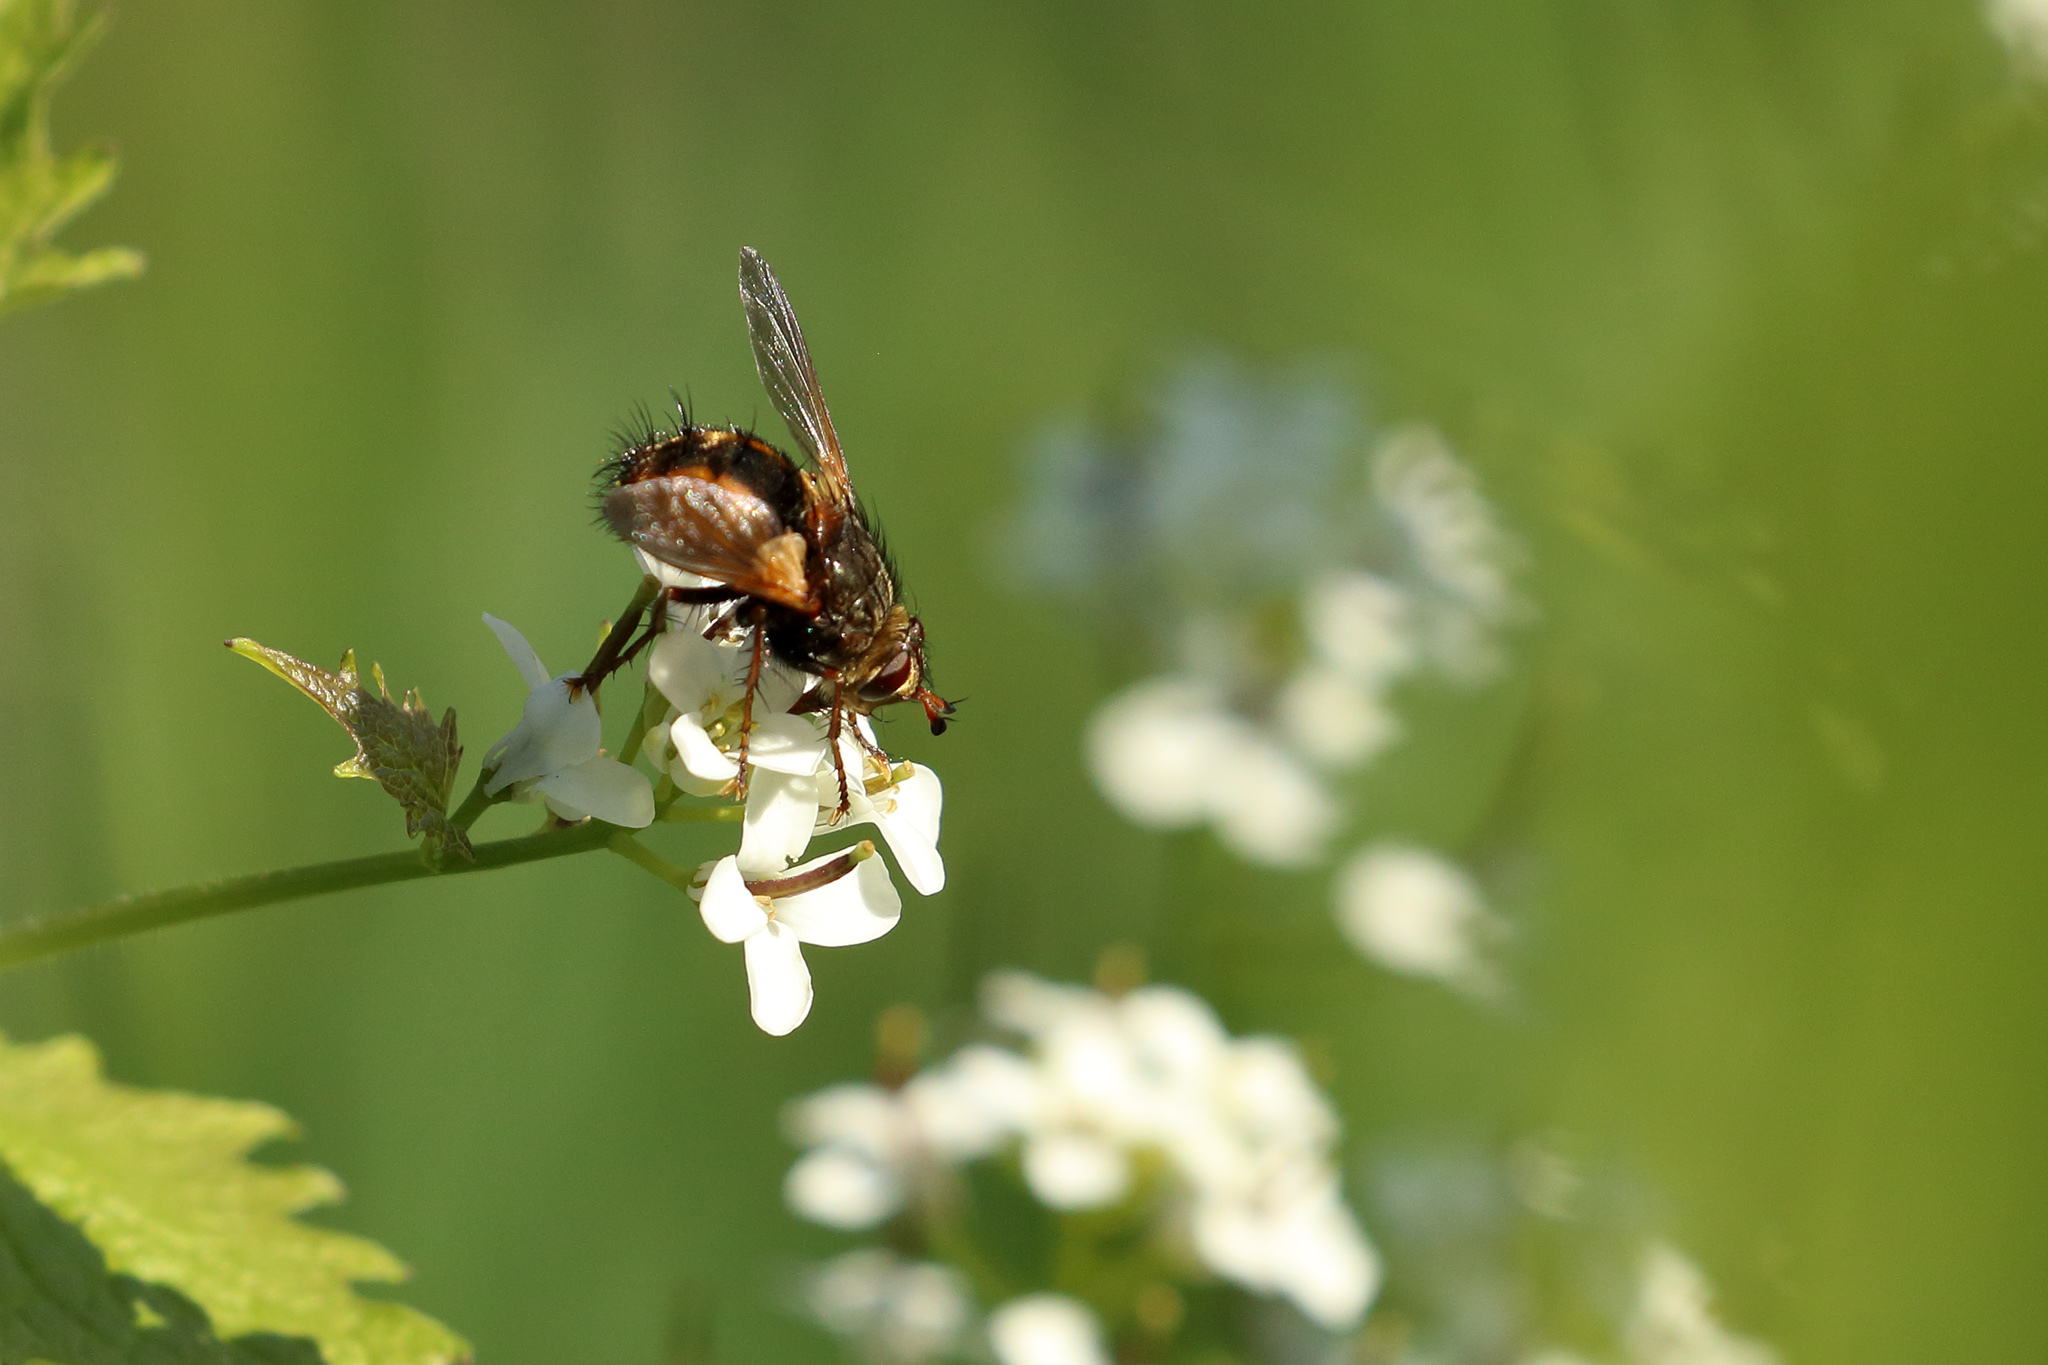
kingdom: Animalia
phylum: Arthropoda
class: Insecta
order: Diptera
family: Tachinidae
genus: Tachina
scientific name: Tachina fera
